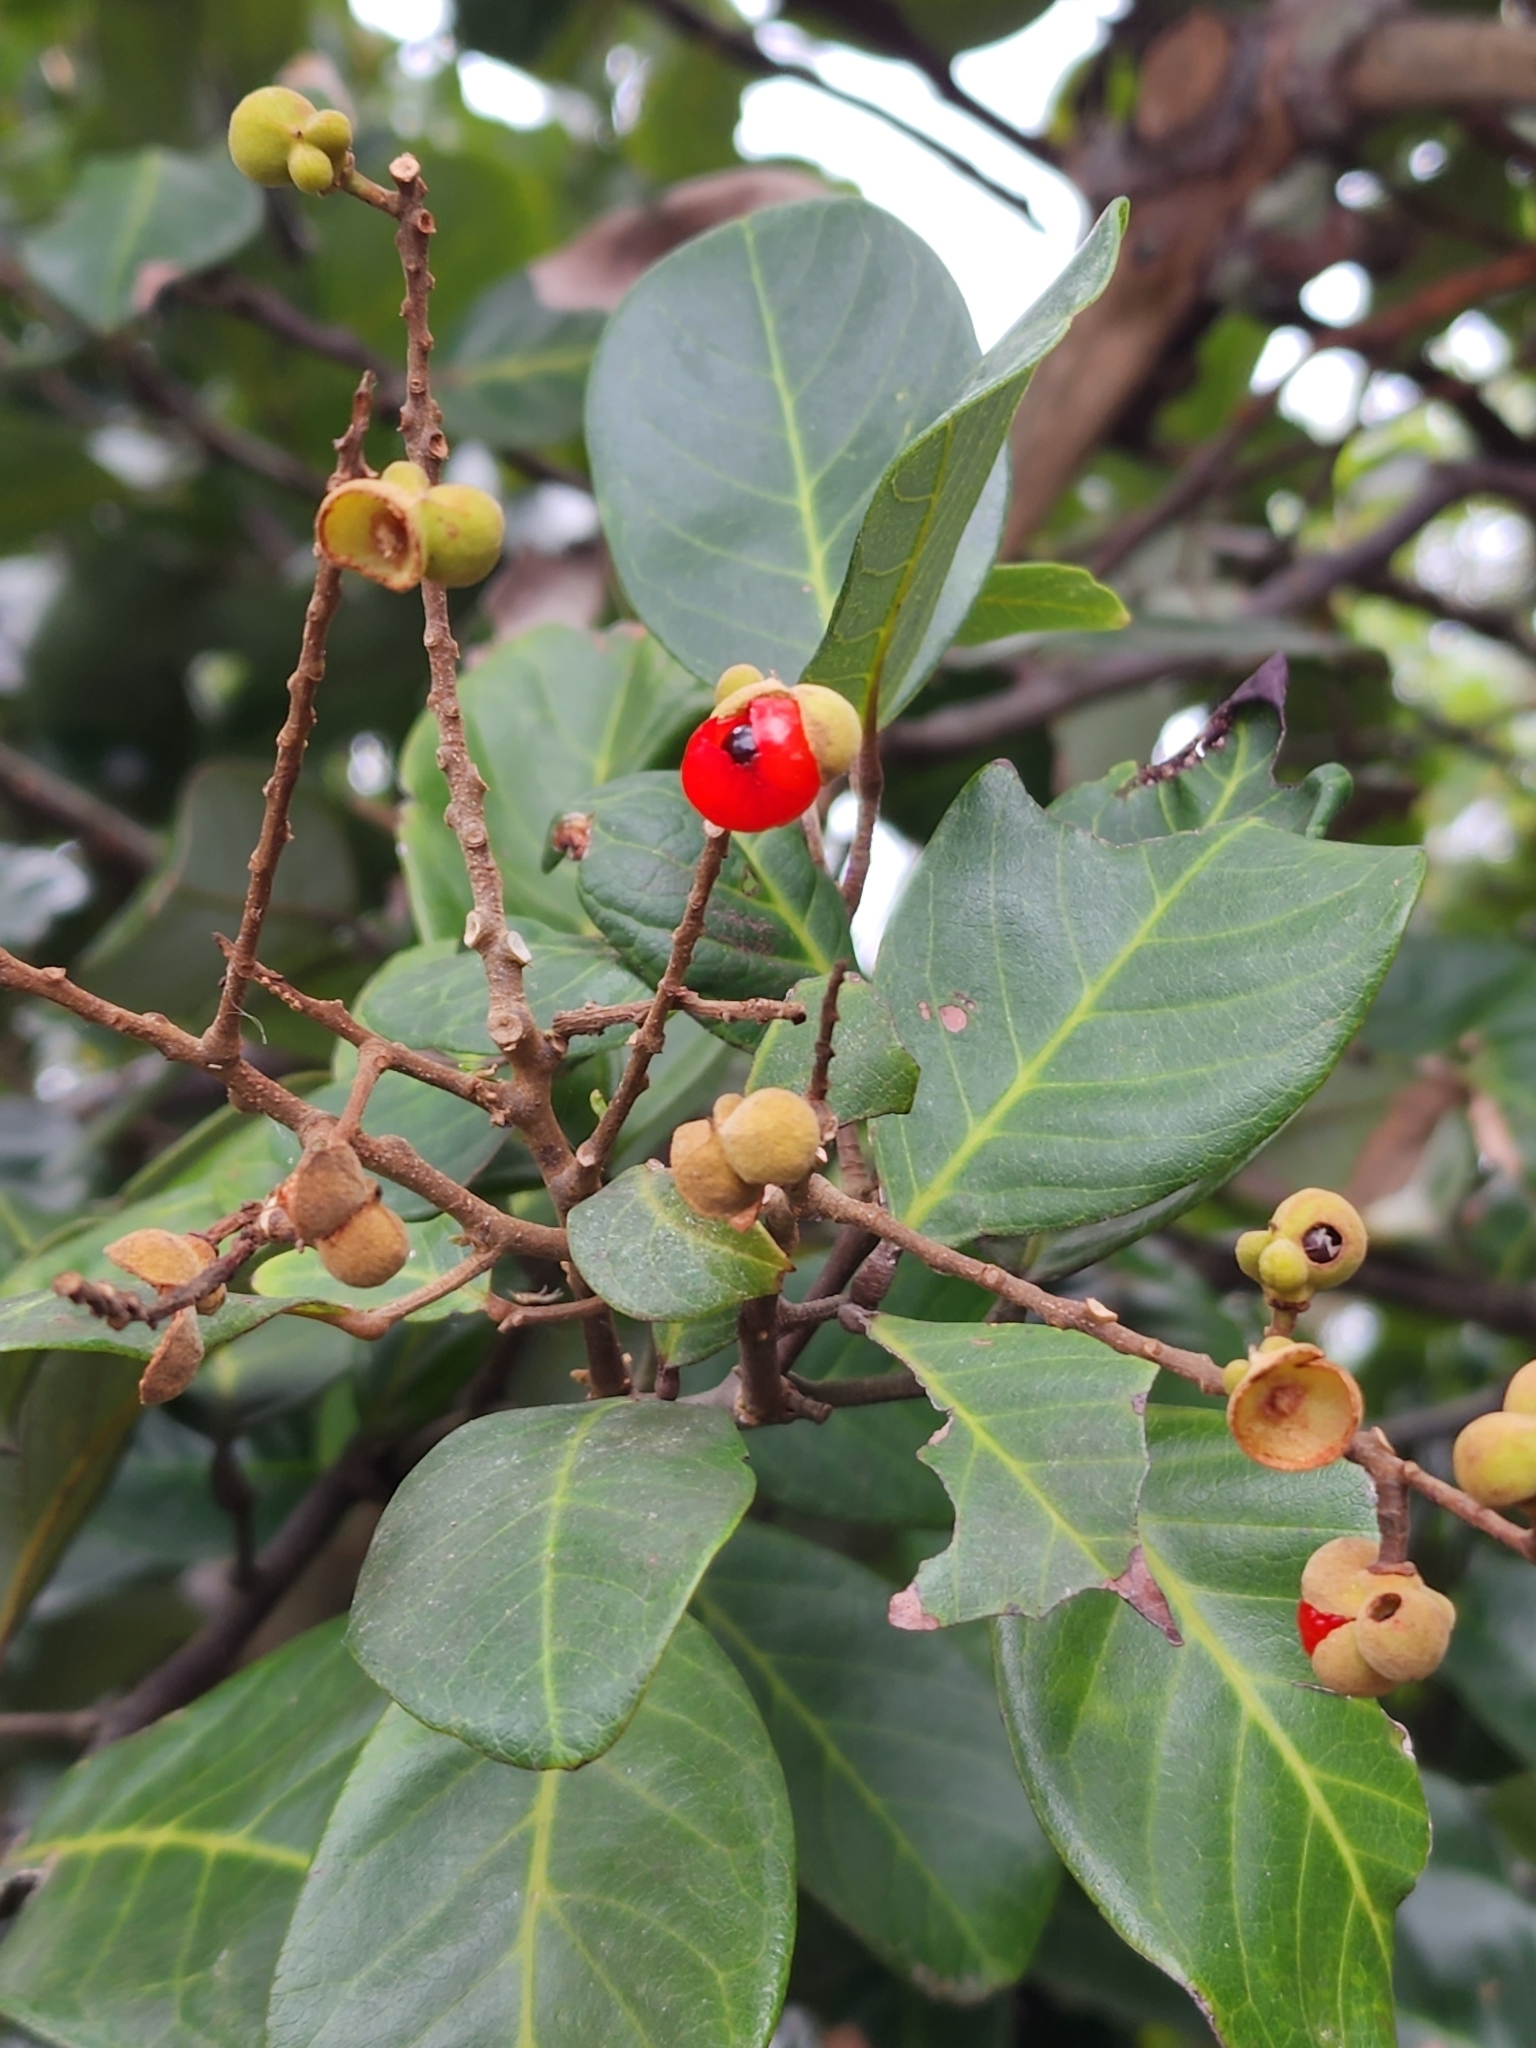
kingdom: Plantae
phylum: Tracheophyta
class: Magnoliopsida
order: Sapindales
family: Sapindaceae
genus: Alectryon
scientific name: Alectryon coriaceus
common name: Beach alectryon
